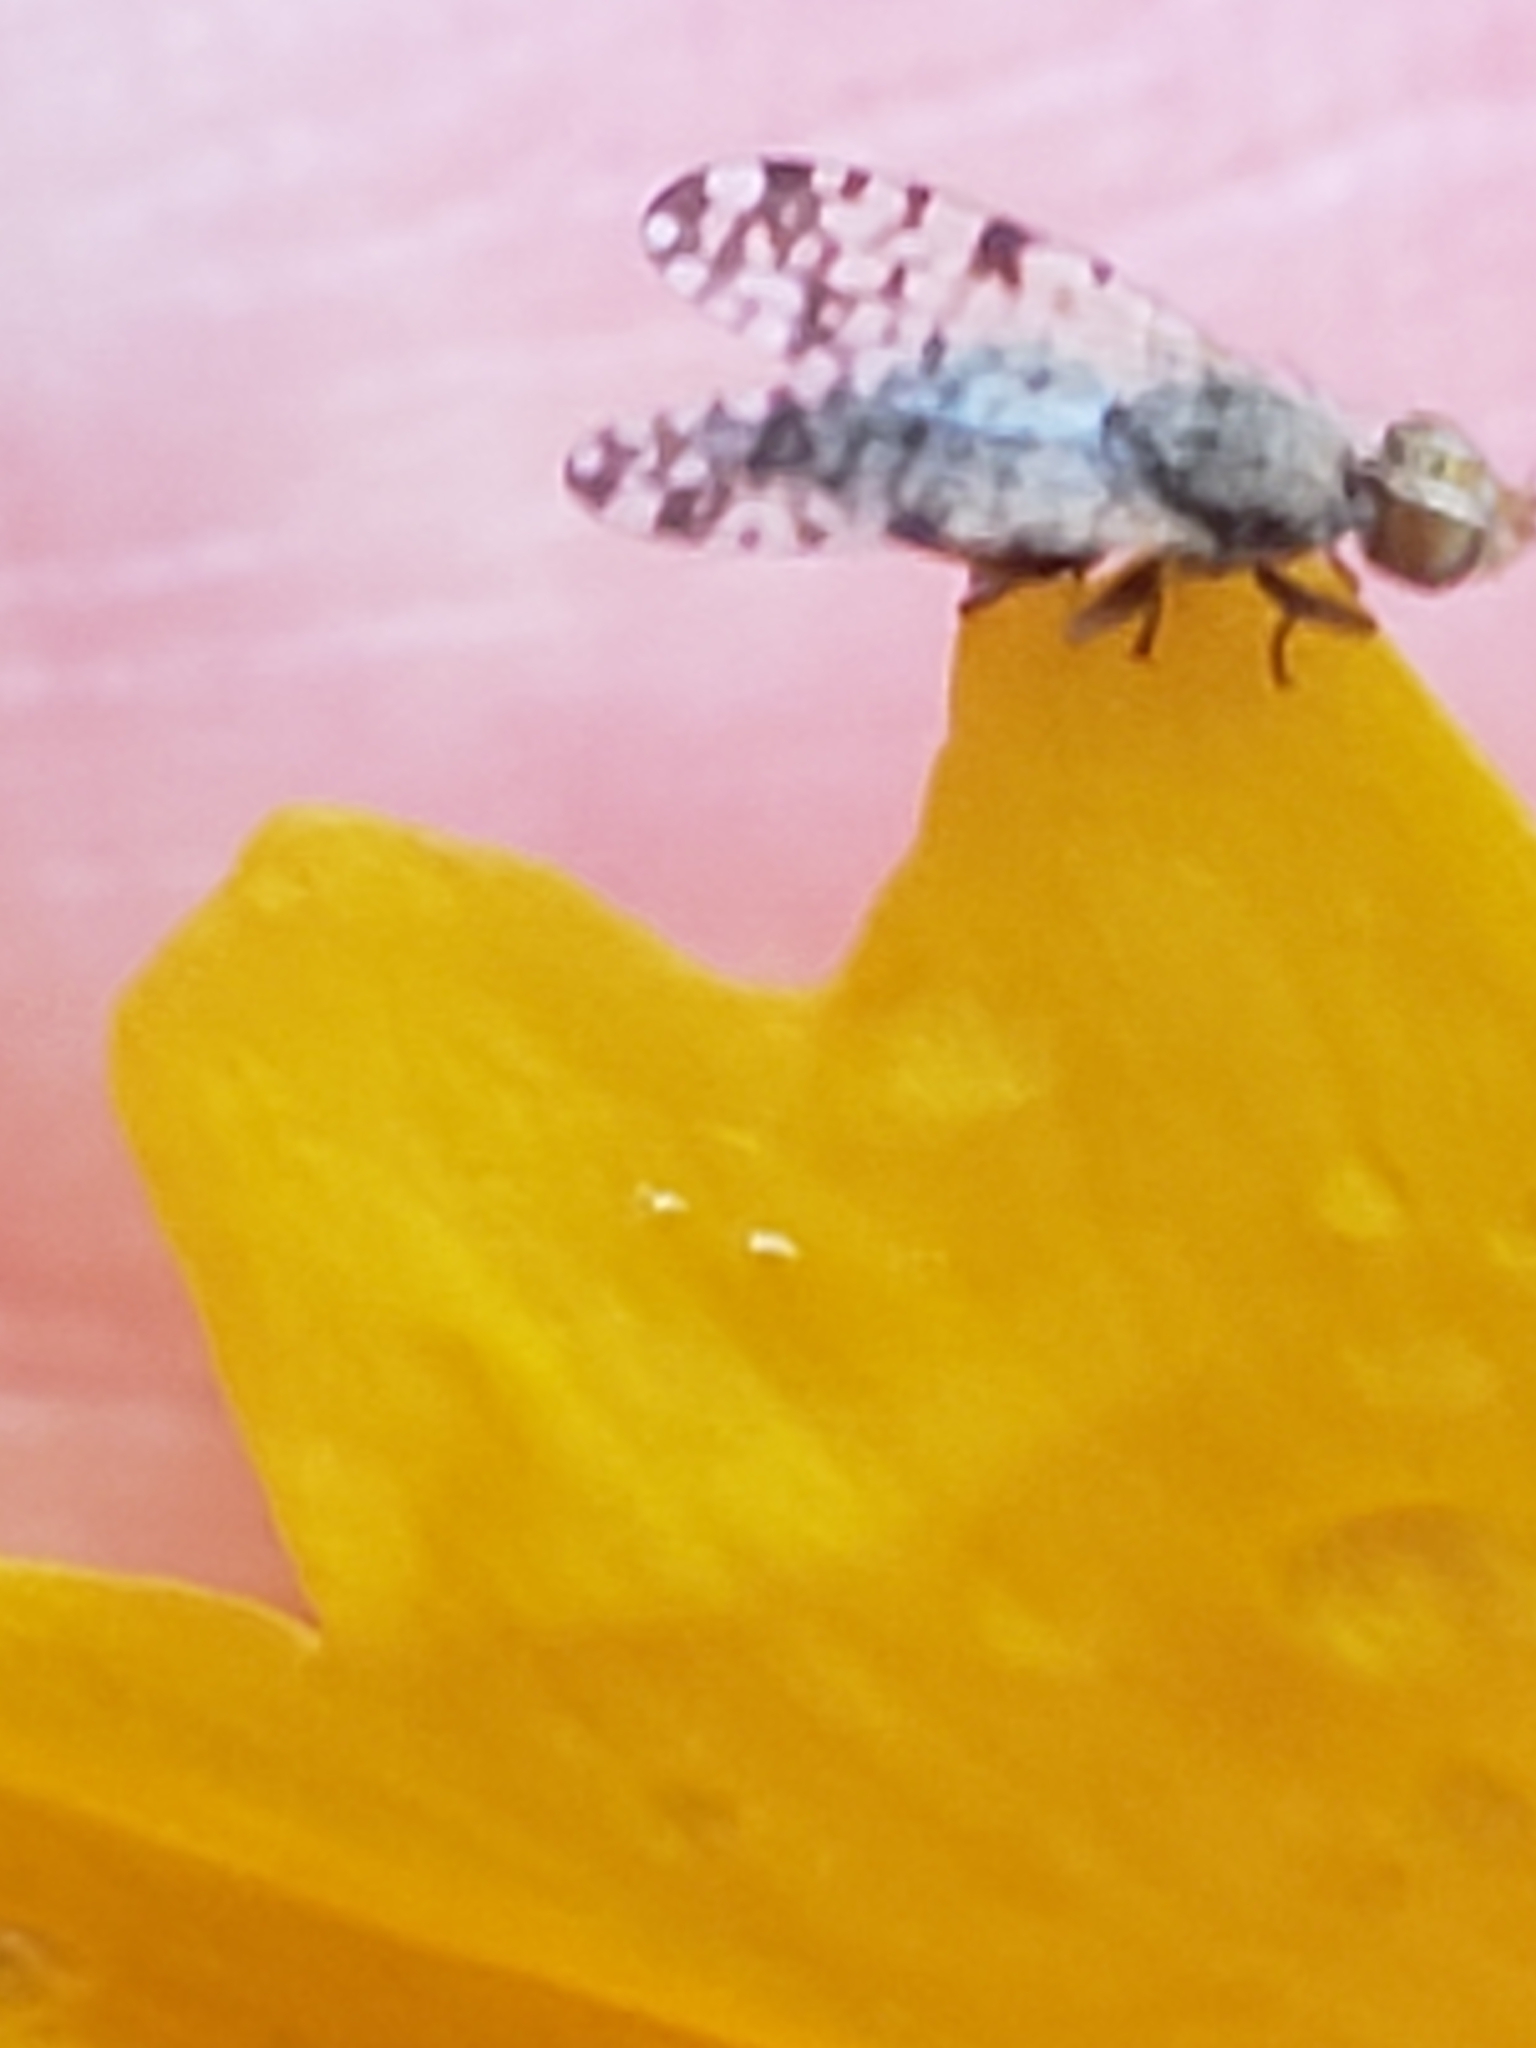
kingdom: Animalia
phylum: Arthropoda
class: Insecta
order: Diptera
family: Tephritidae
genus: Dioxyna
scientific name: Dioxyna picciola
